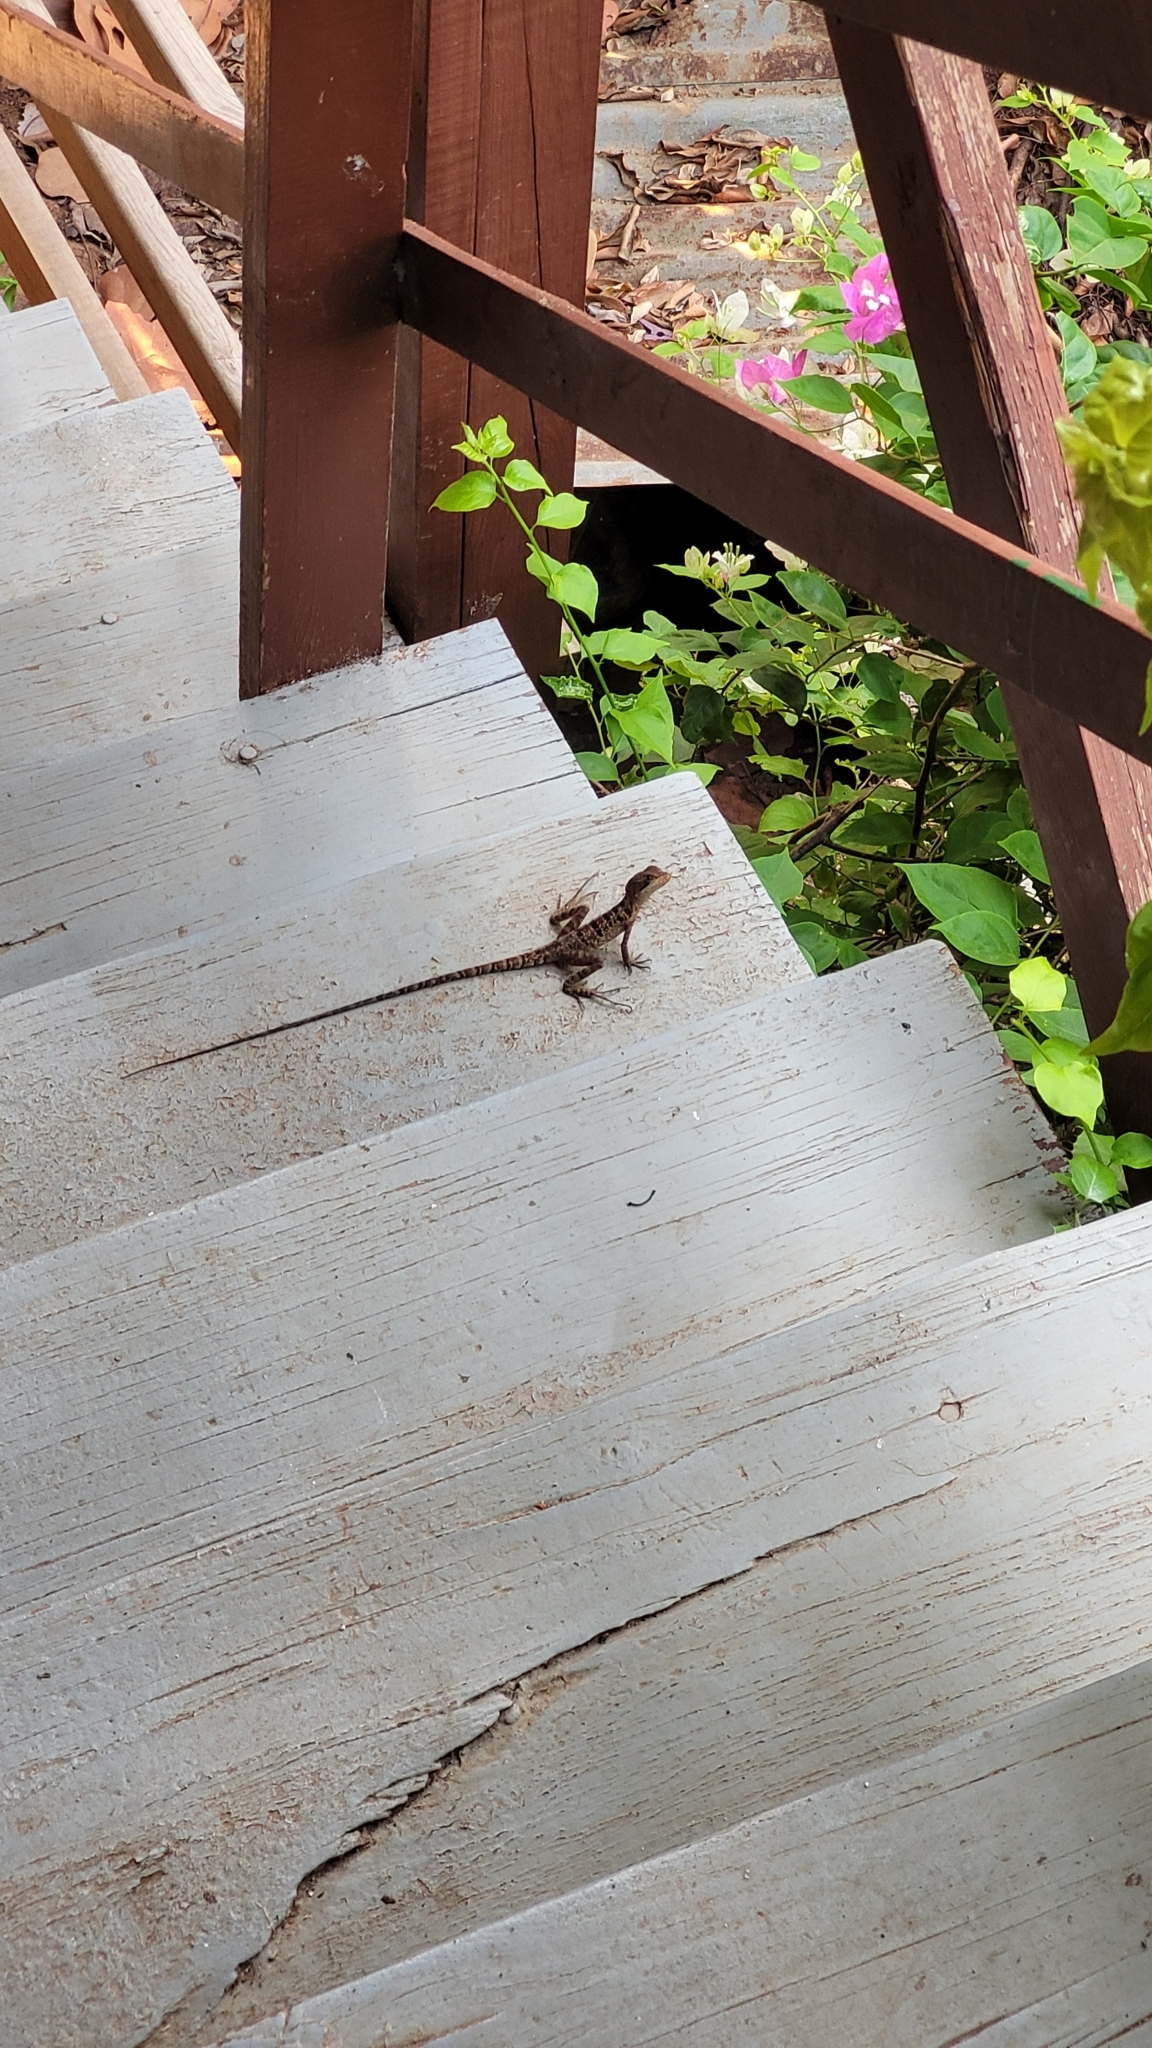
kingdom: Animalia
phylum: Chordata
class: Squamata
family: Corytophanidae
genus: Basiliscus
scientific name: Basiliscus vittatus
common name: Brown basilisk
